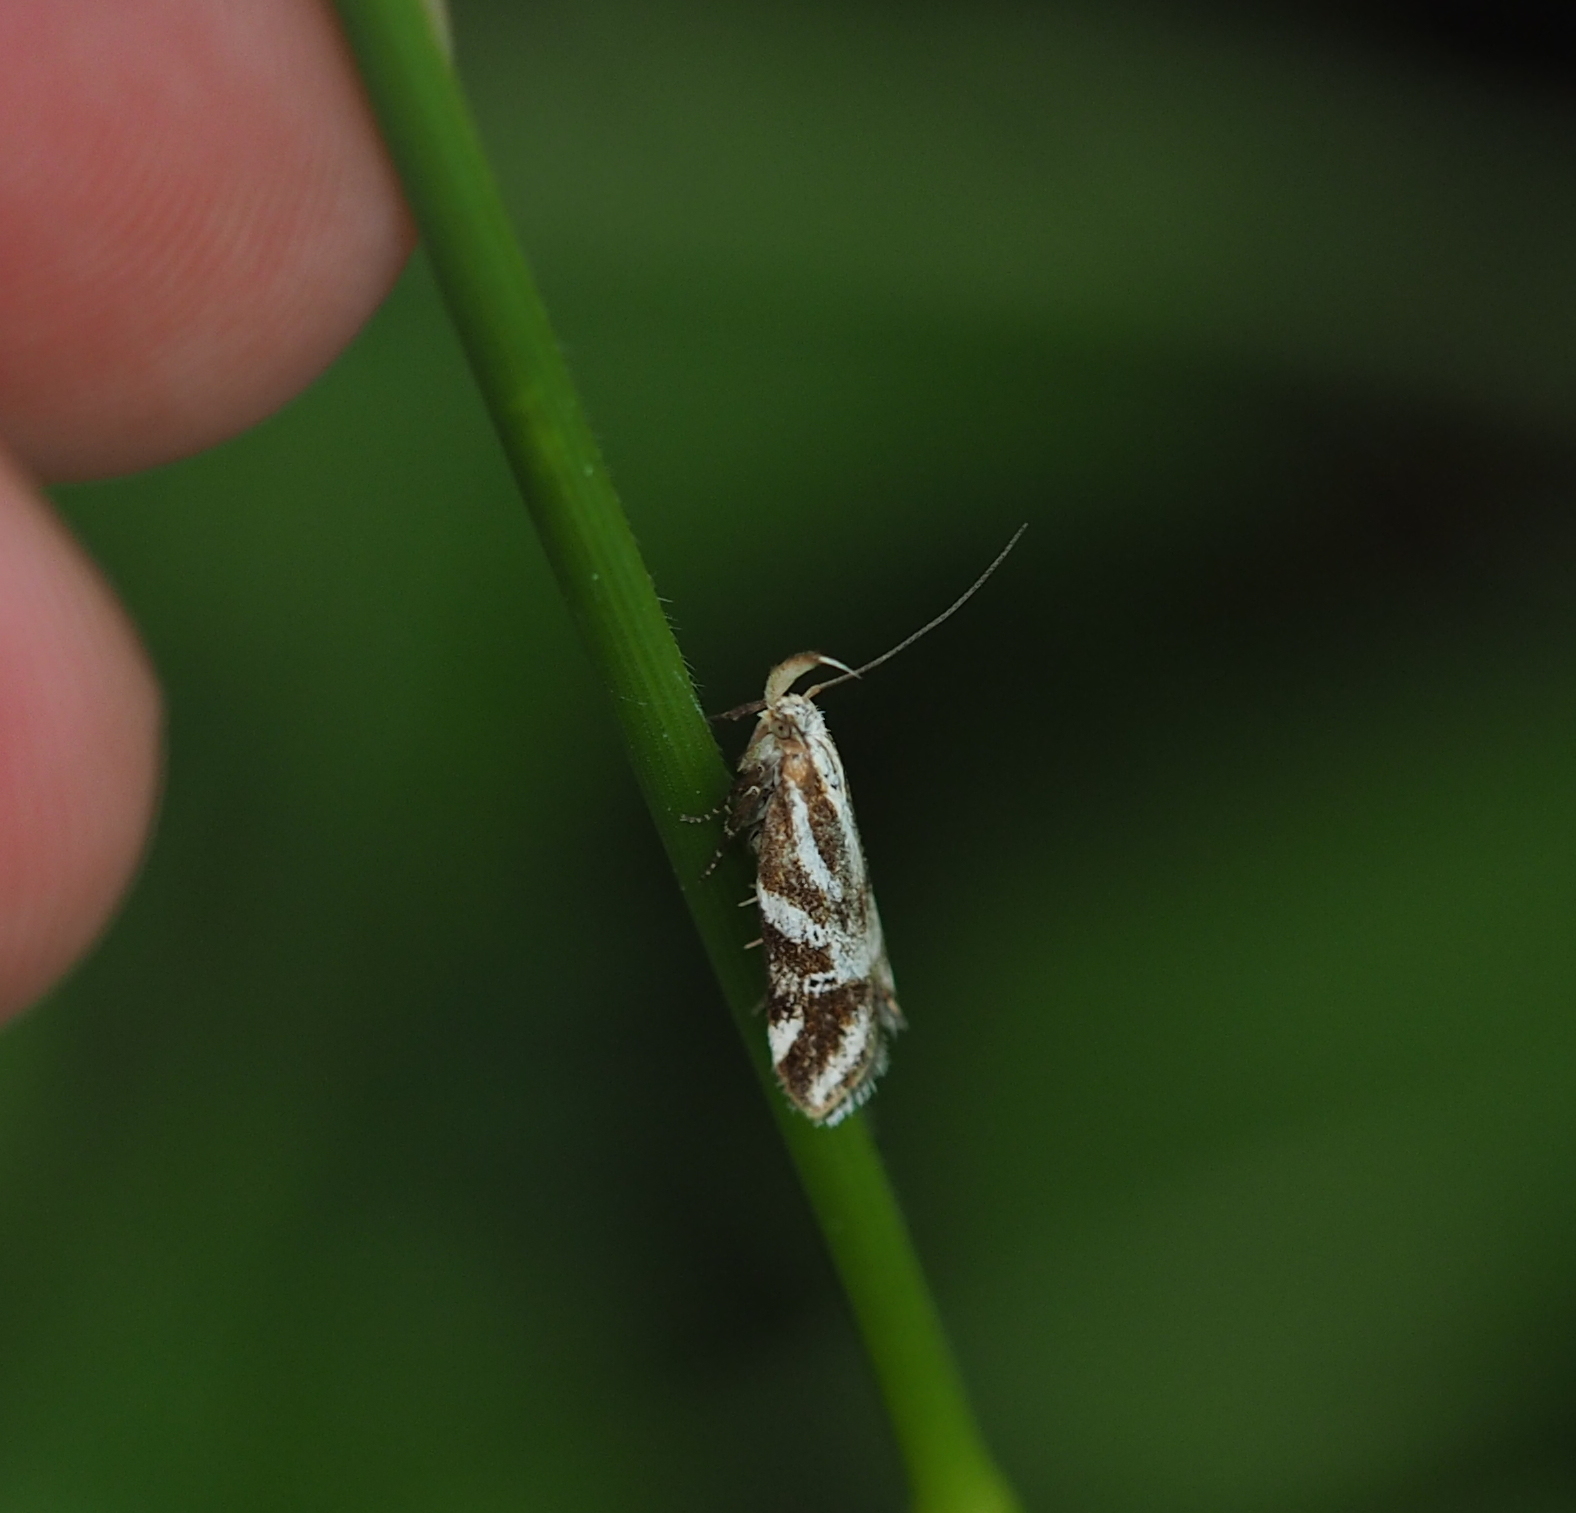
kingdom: Animalia
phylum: Arthropoda
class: Insecta
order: Lepidoptera
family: Depressariidae
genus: Orophia
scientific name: Orophia denisella
